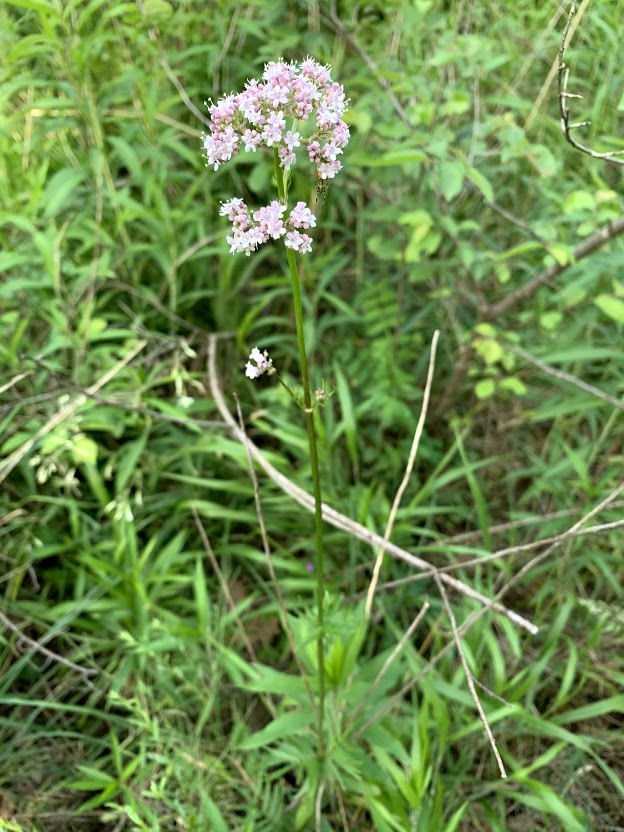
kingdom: Plantae
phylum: Tracheophyta
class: Magnoliopsida
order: Dipsacales
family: Caprifoliaceae
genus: Valeriana
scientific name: Valeriana officinalis
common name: Common valerian
